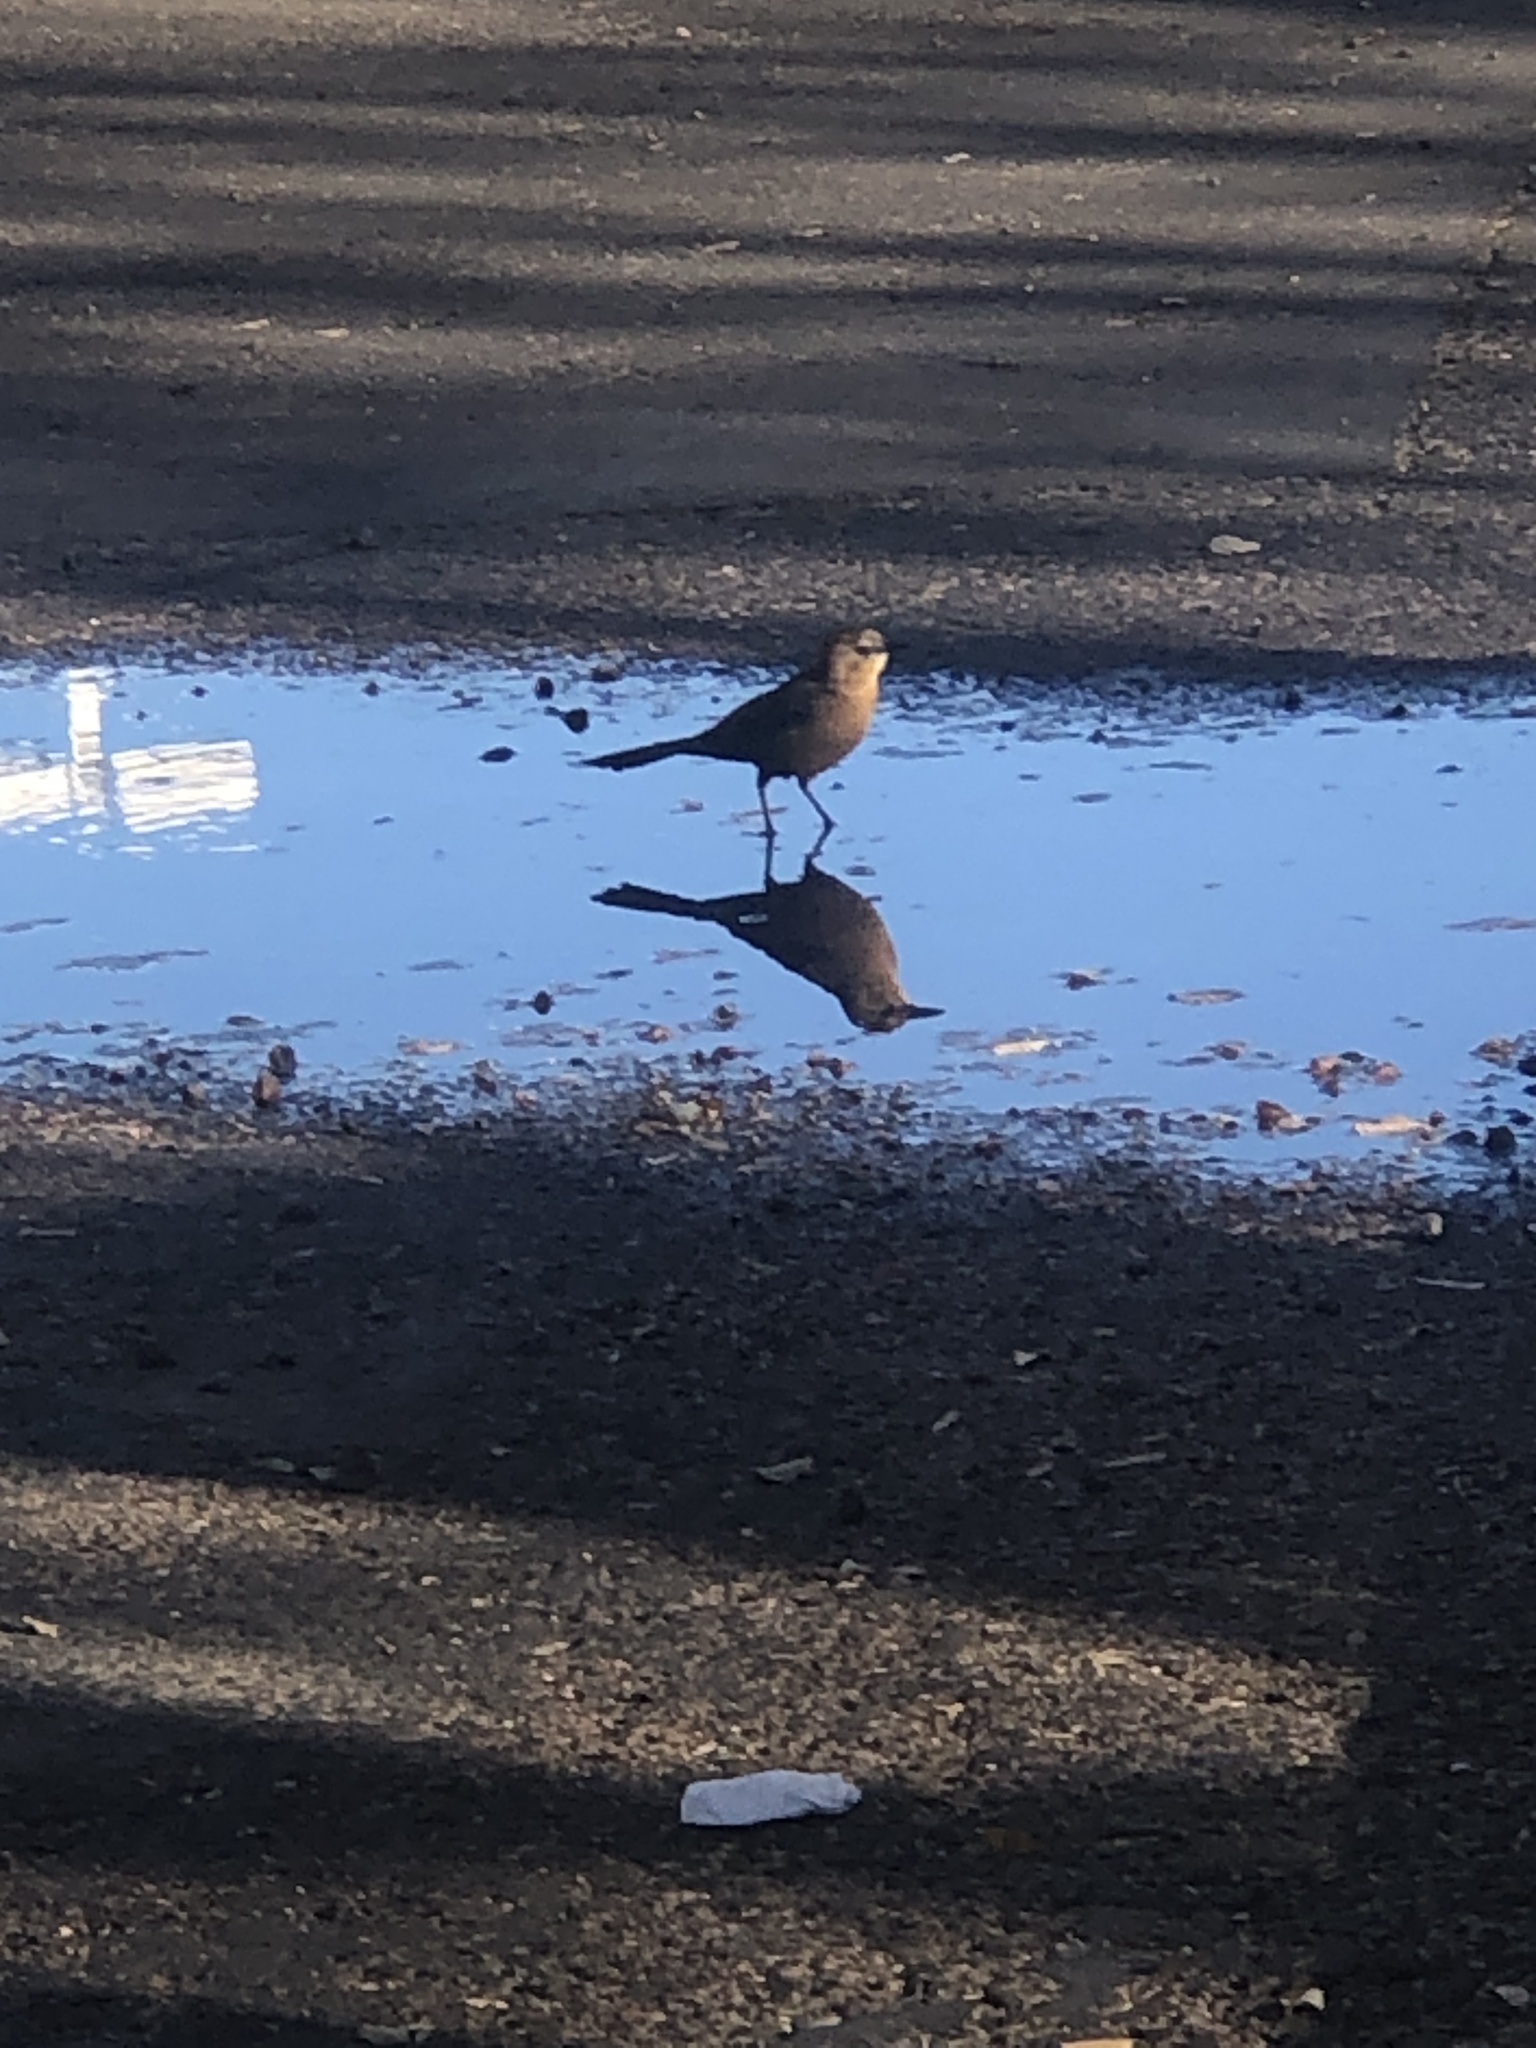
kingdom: Animalia
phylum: Chordata
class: Aves
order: Passeriformes
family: Icteridae
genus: Quiscalus
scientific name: Quiscalus mexicanus
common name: Great-tailed grackle
